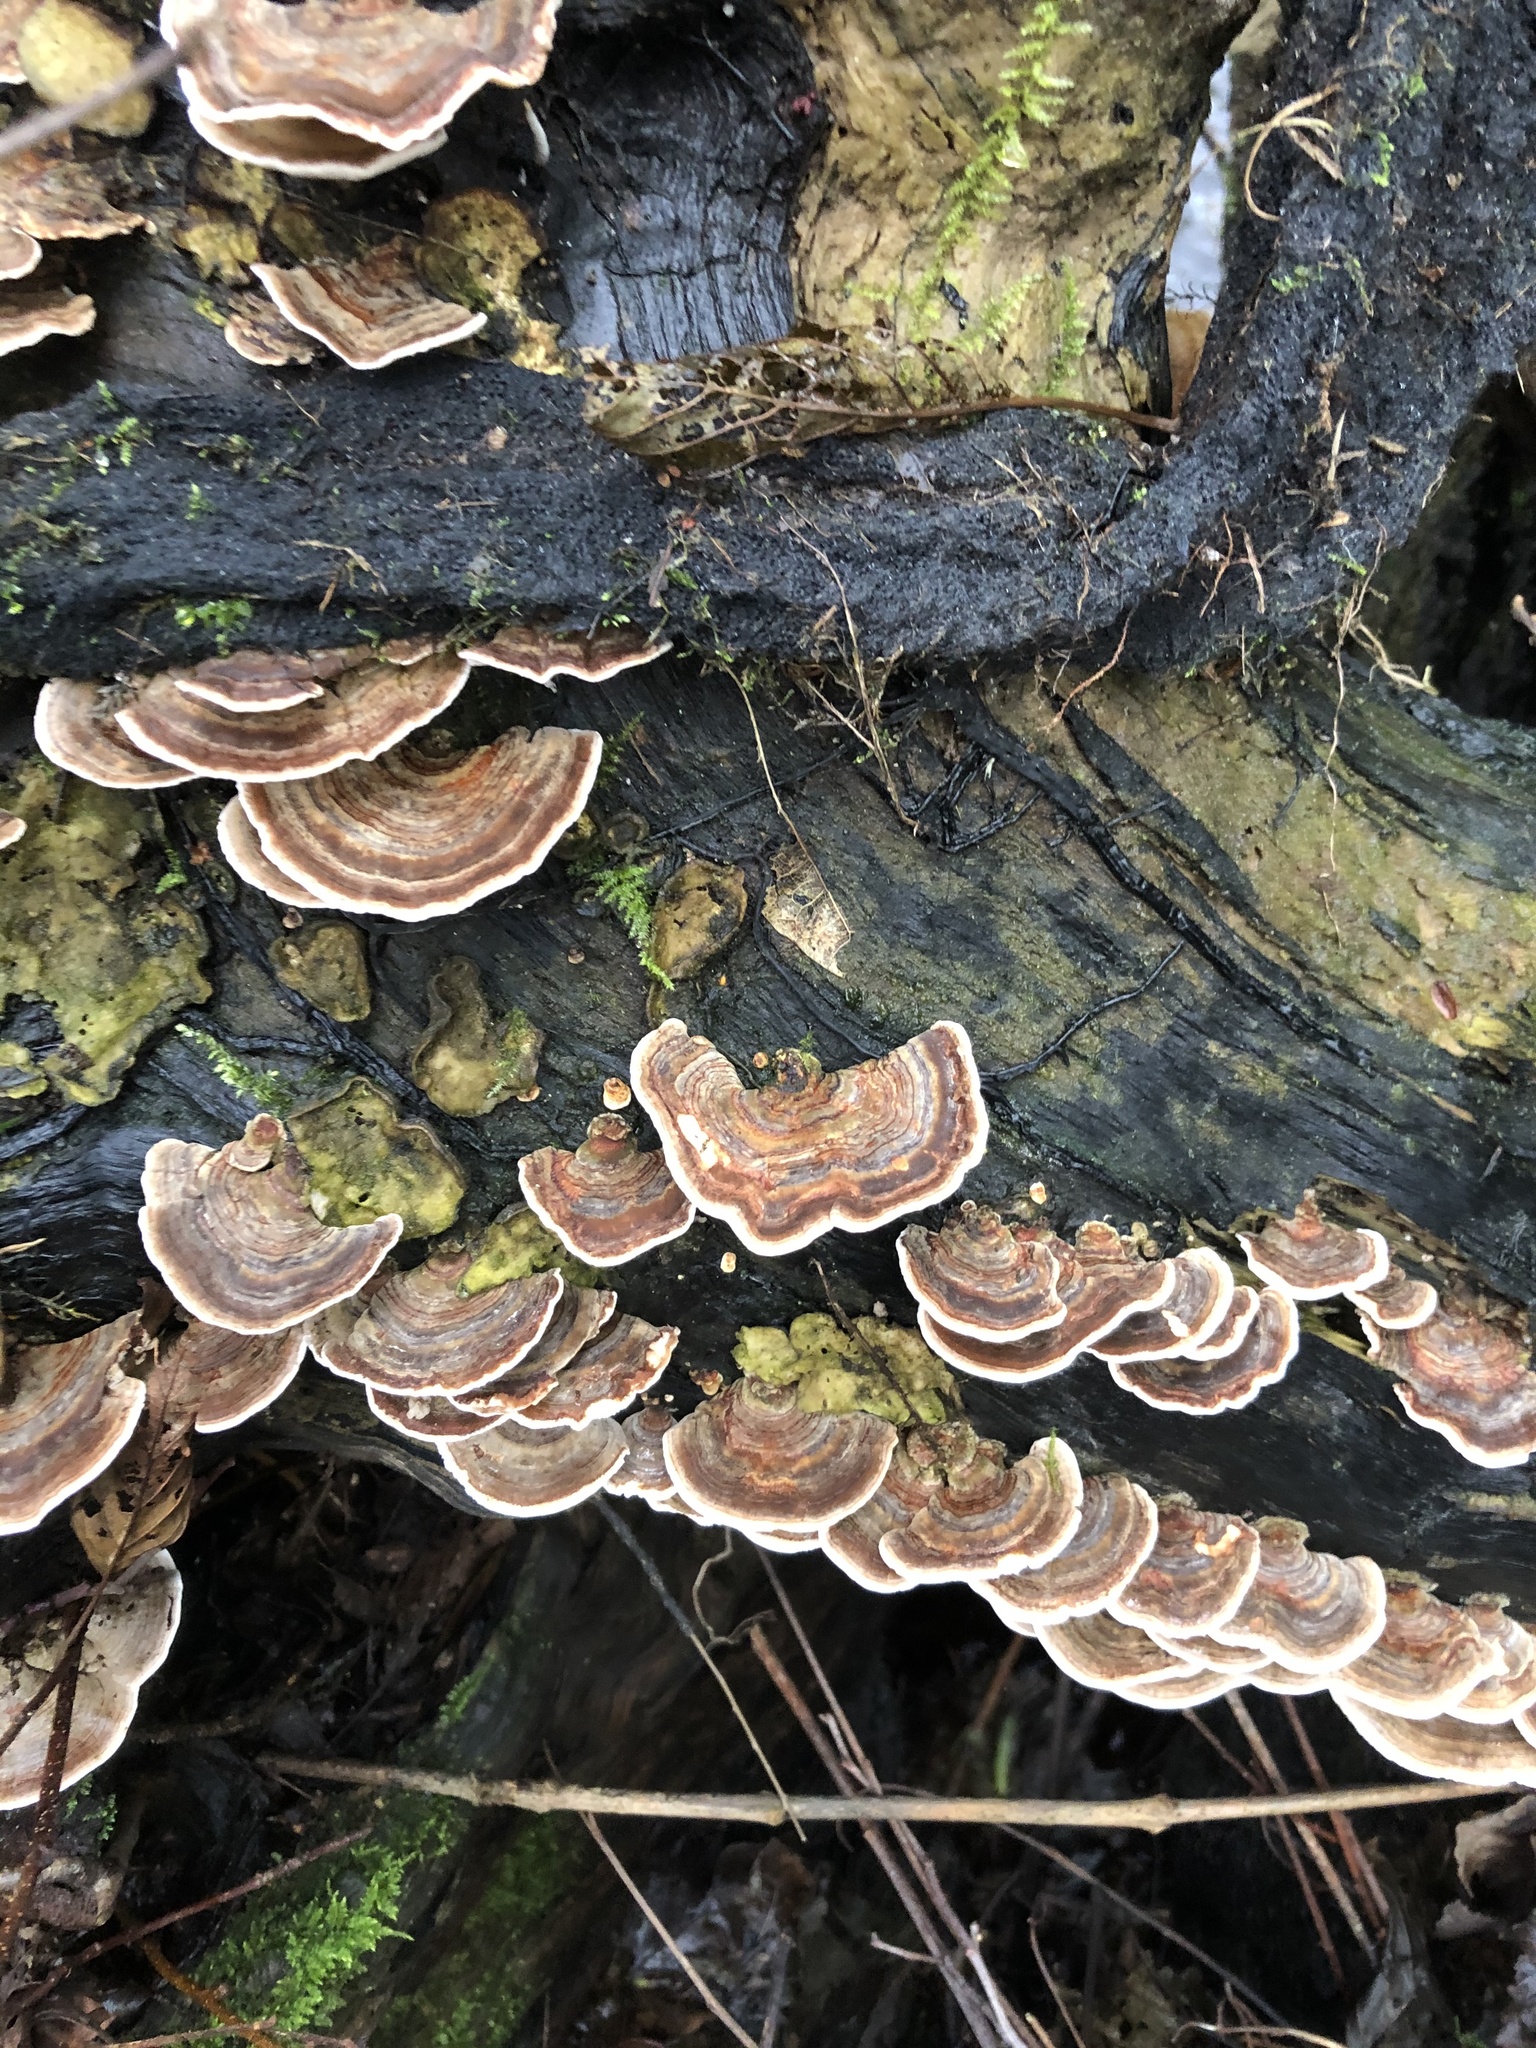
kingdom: Fungi
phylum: Basidiomycota
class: Agaricomycetes
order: Polyporales
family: Polyporaceae
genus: Trametes
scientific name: Trametes versicolor
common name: Turkeytail
